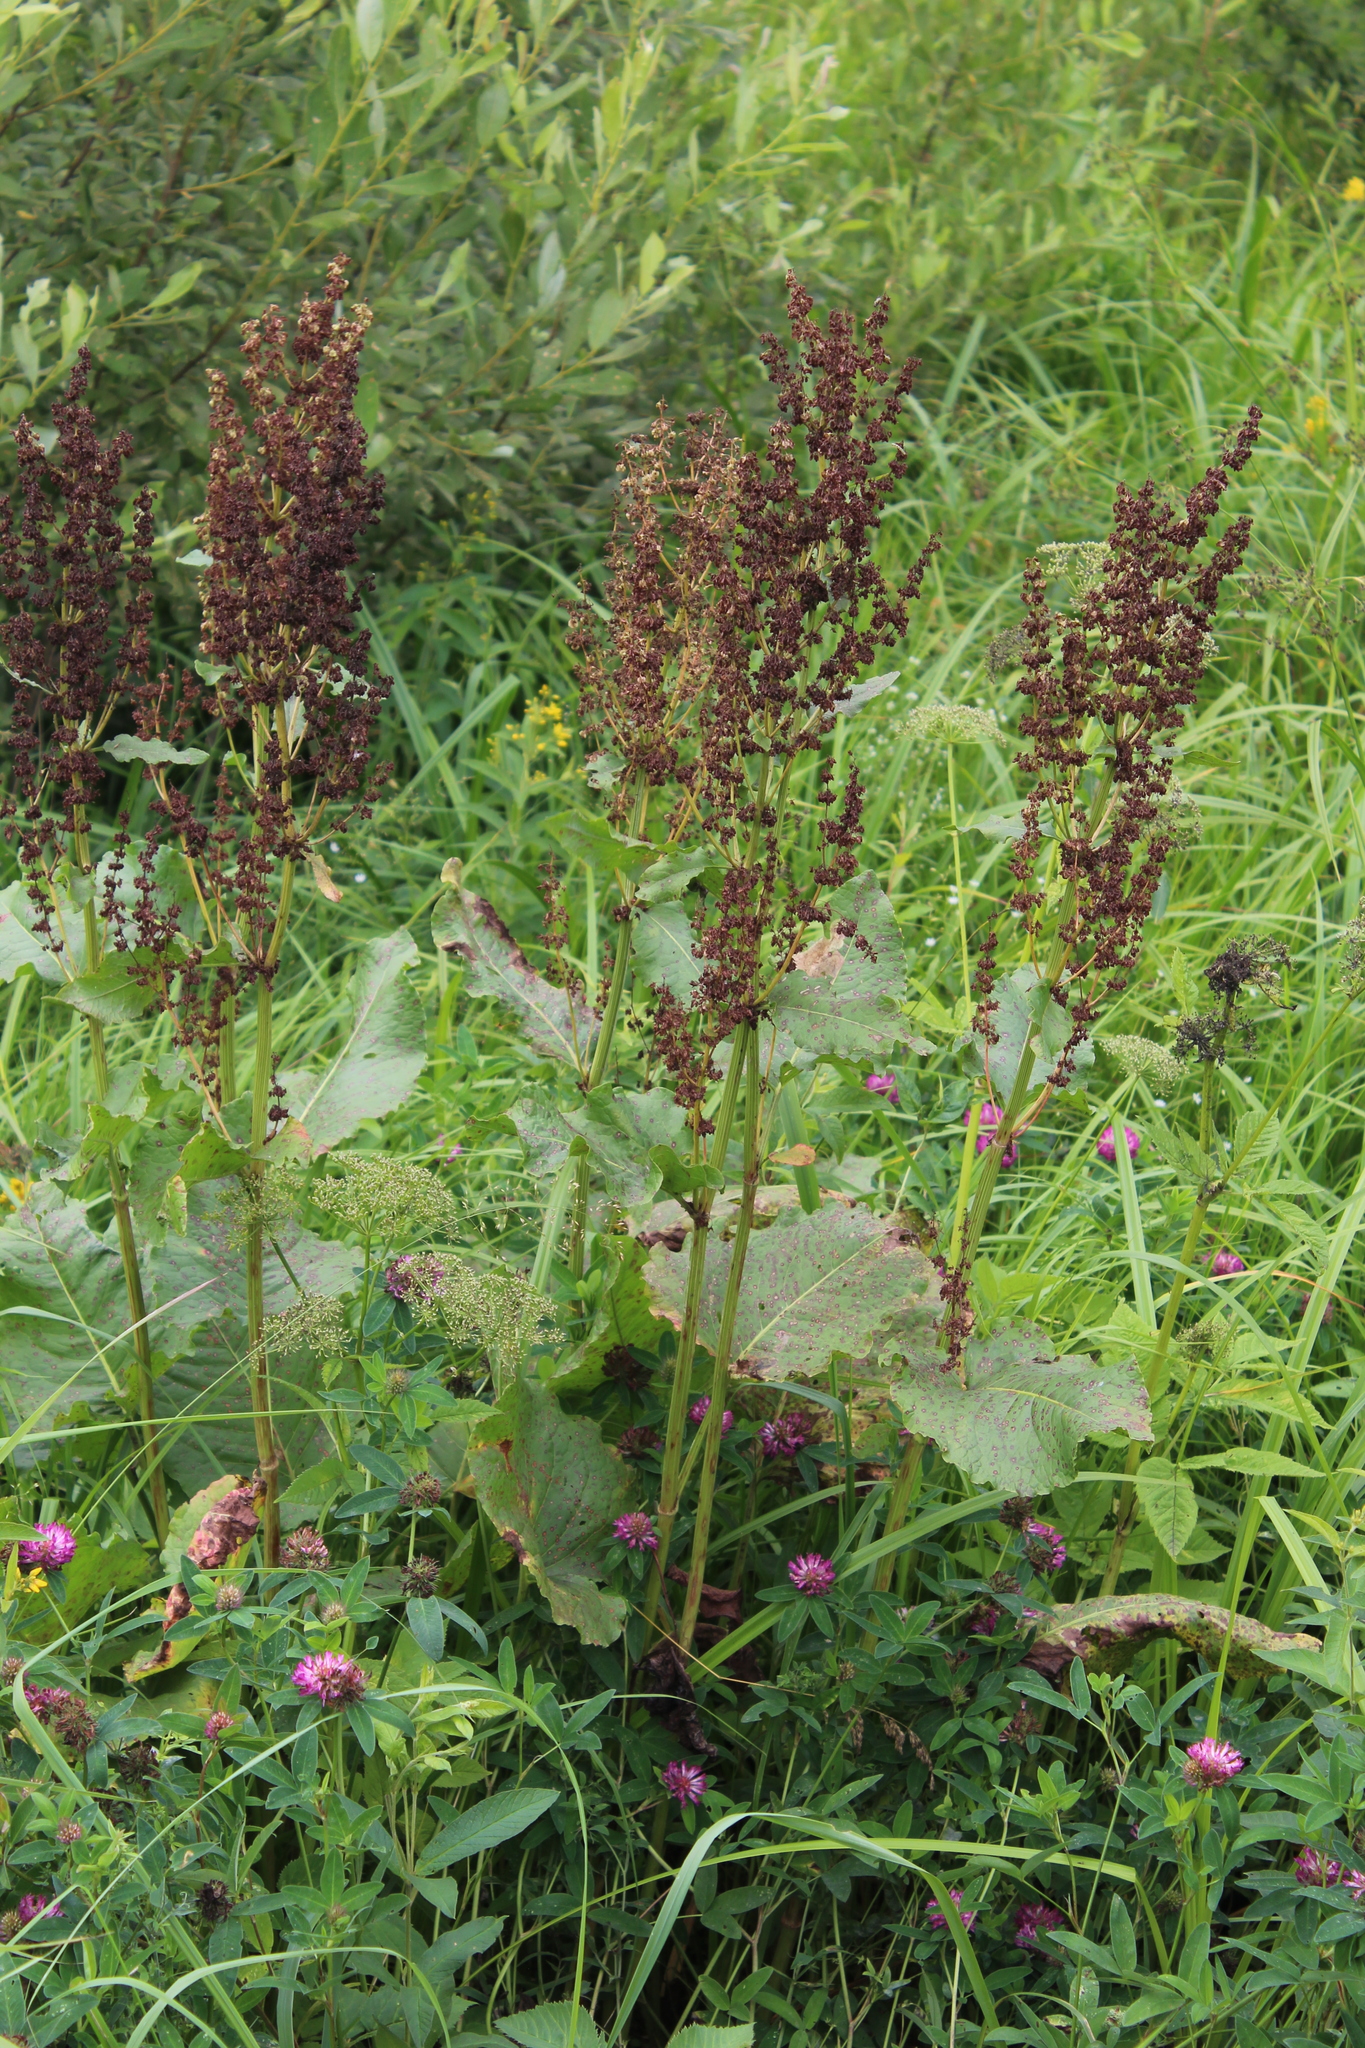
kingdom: Plantae
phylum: Tracheophyta
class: Magnoliopsida
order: Caryophyllales
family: Polygonaceae
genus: Rumex
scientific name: Rumex confertus
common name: Russian dock
